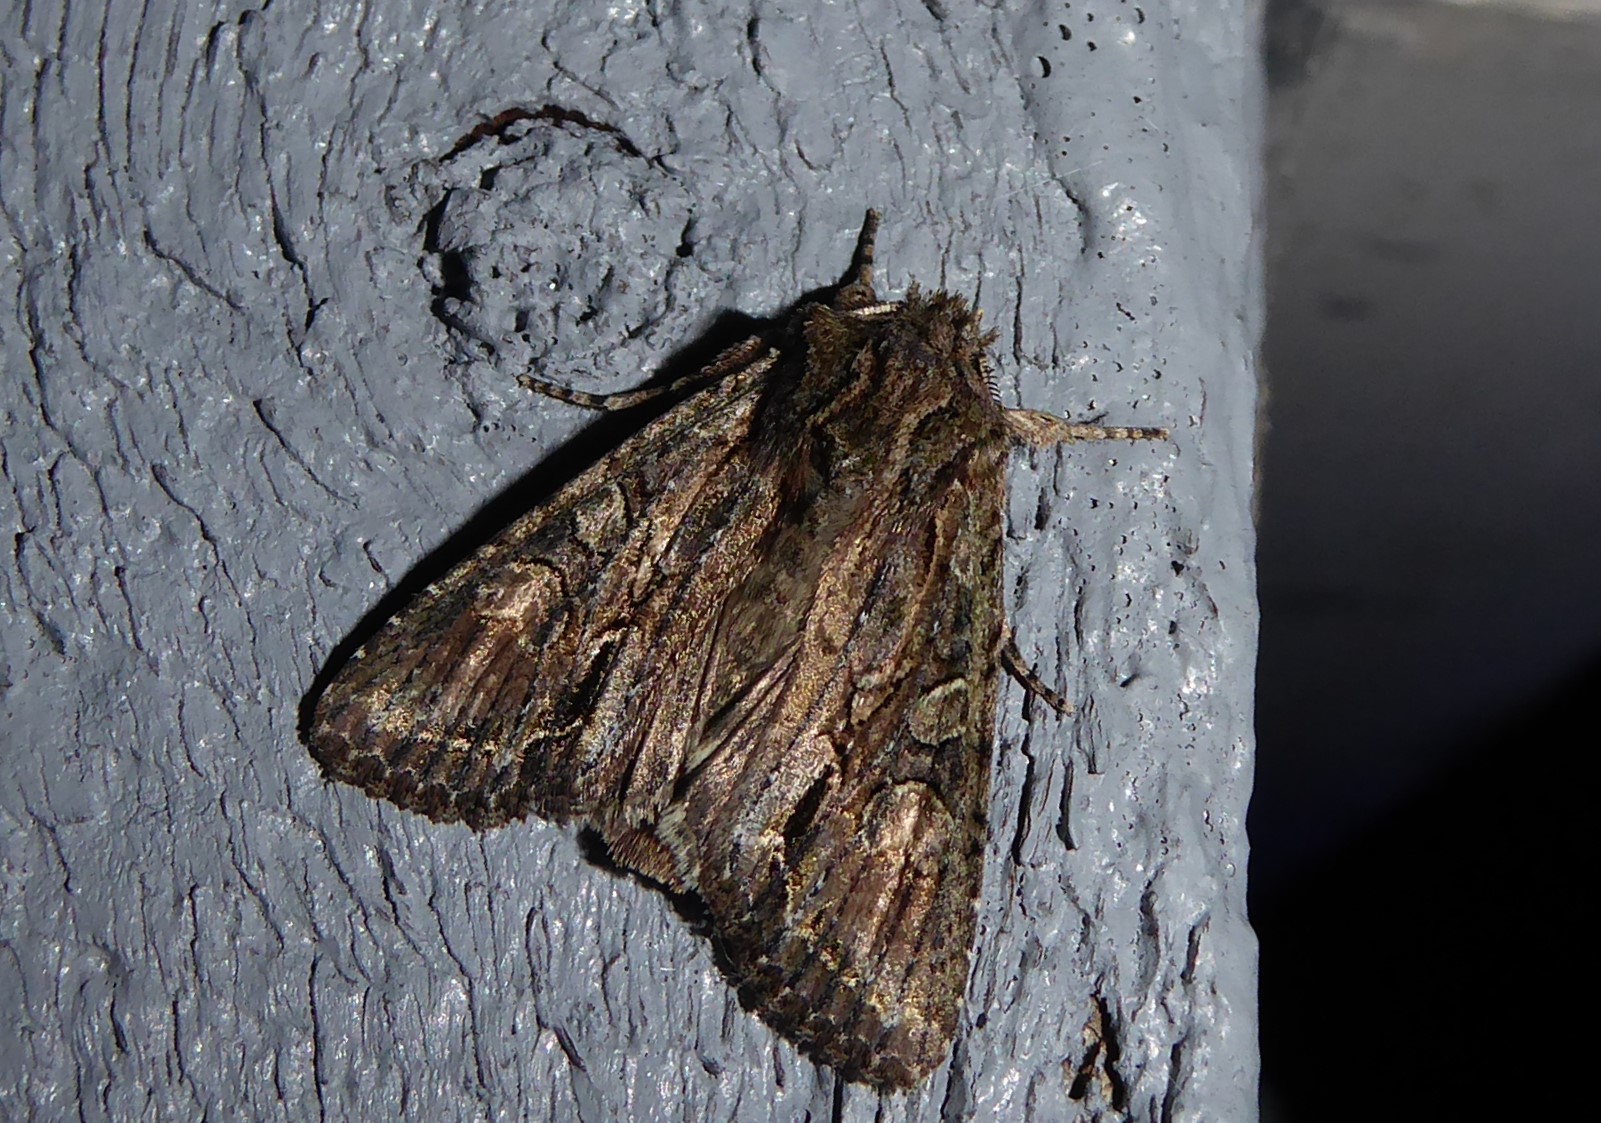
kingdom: Animalia
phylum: Arthropoda
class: Insecta
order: Lepidoptera
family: Noctuidae
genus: Ichneutica
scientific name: Ichneutica mutans
